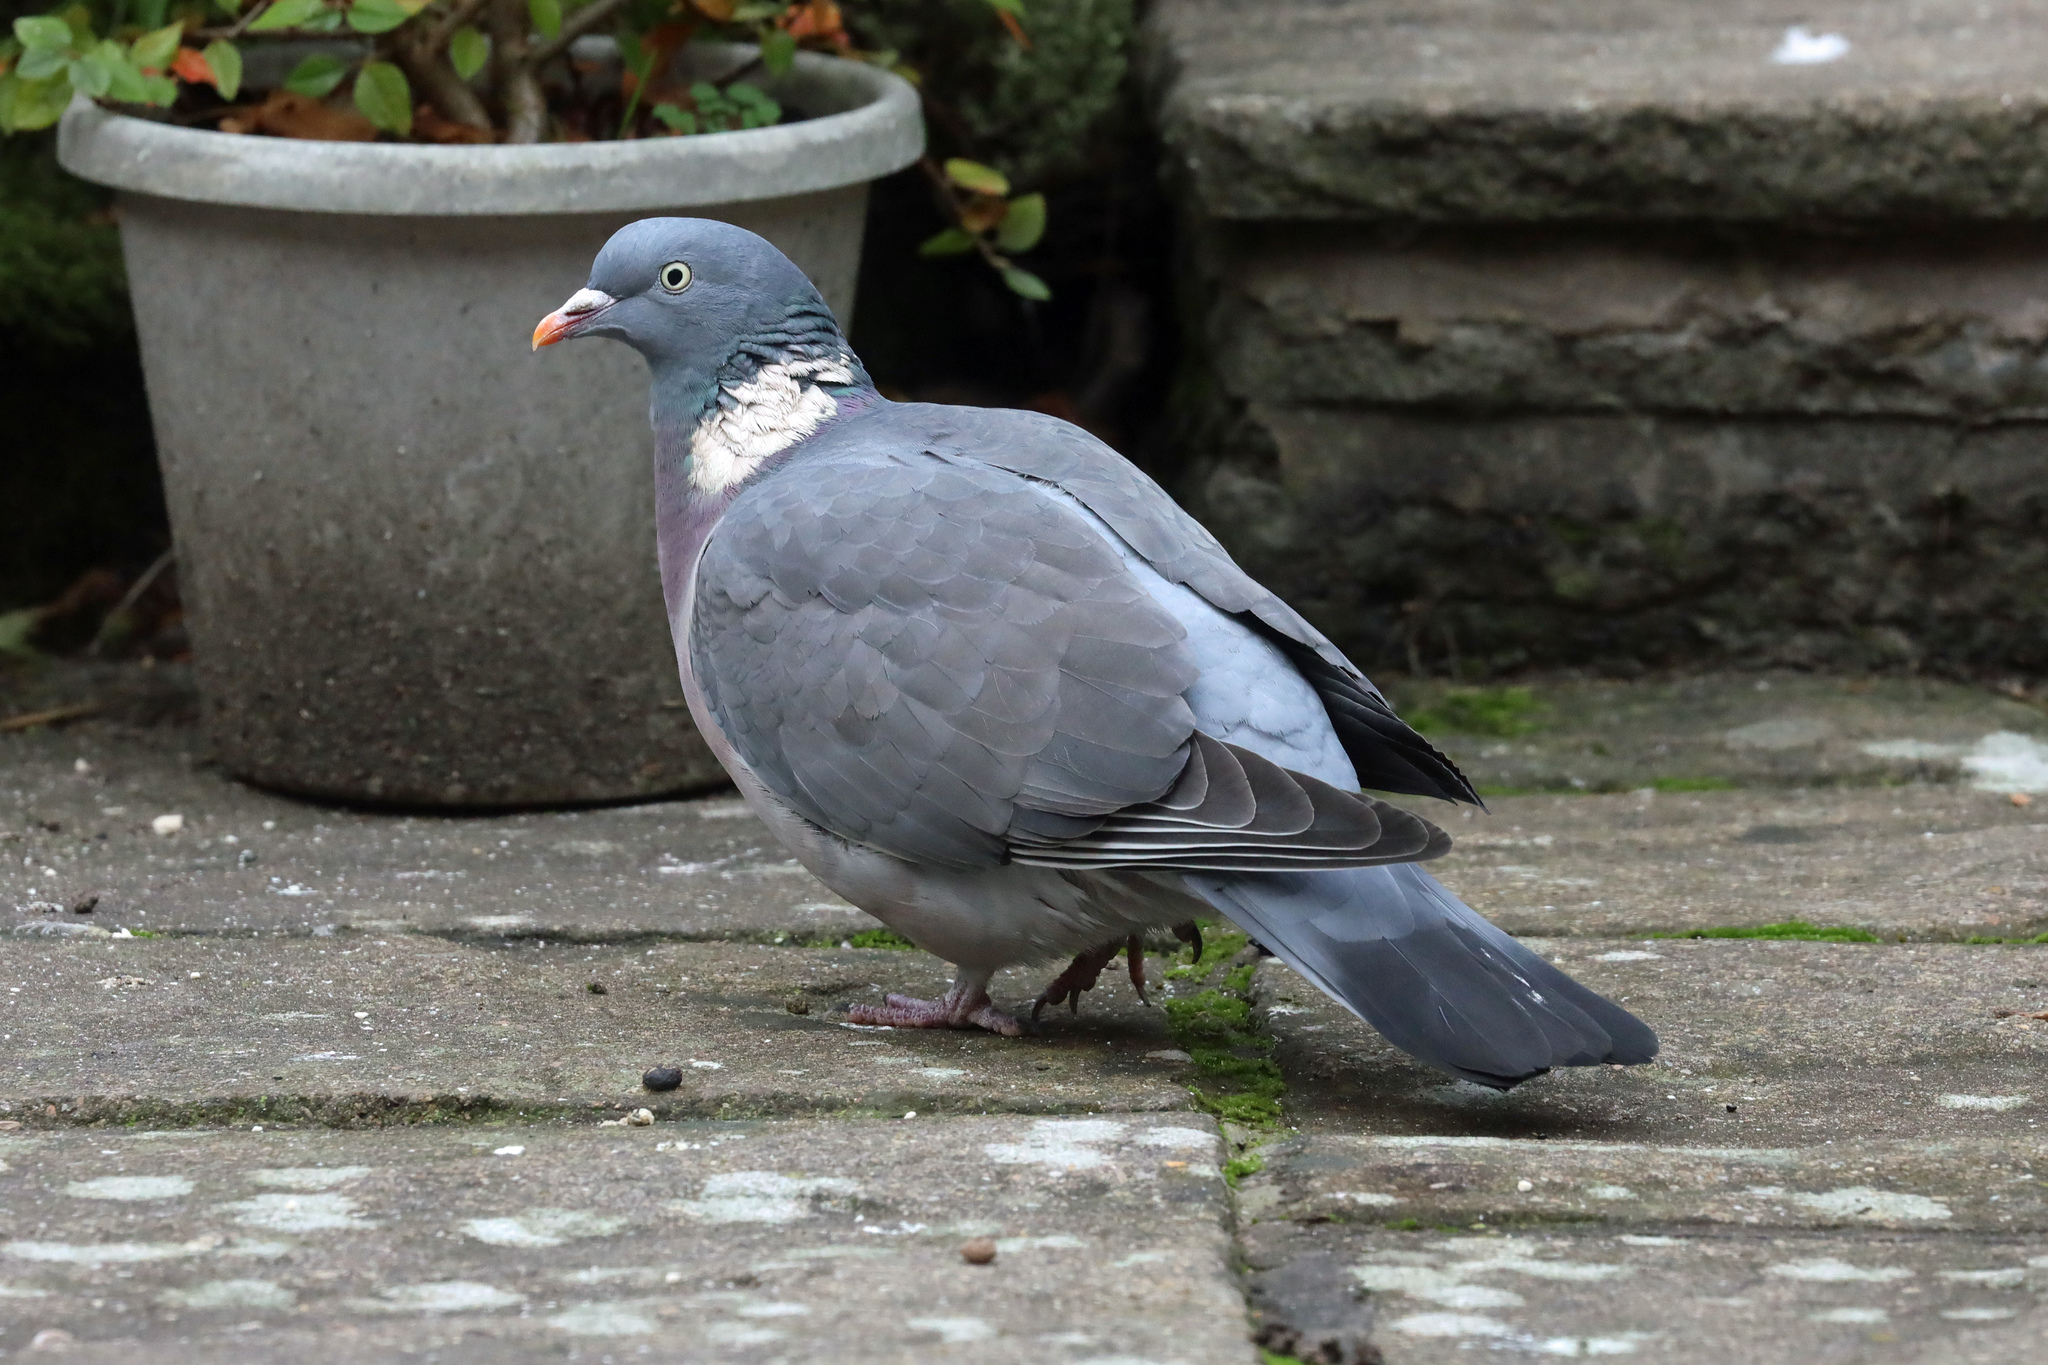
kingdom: Animalia
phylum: Chordata
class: Aves
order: Columbiformes
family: Columbidae
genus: Columba
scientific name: Columba palumbus
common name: Common wood pigeon
